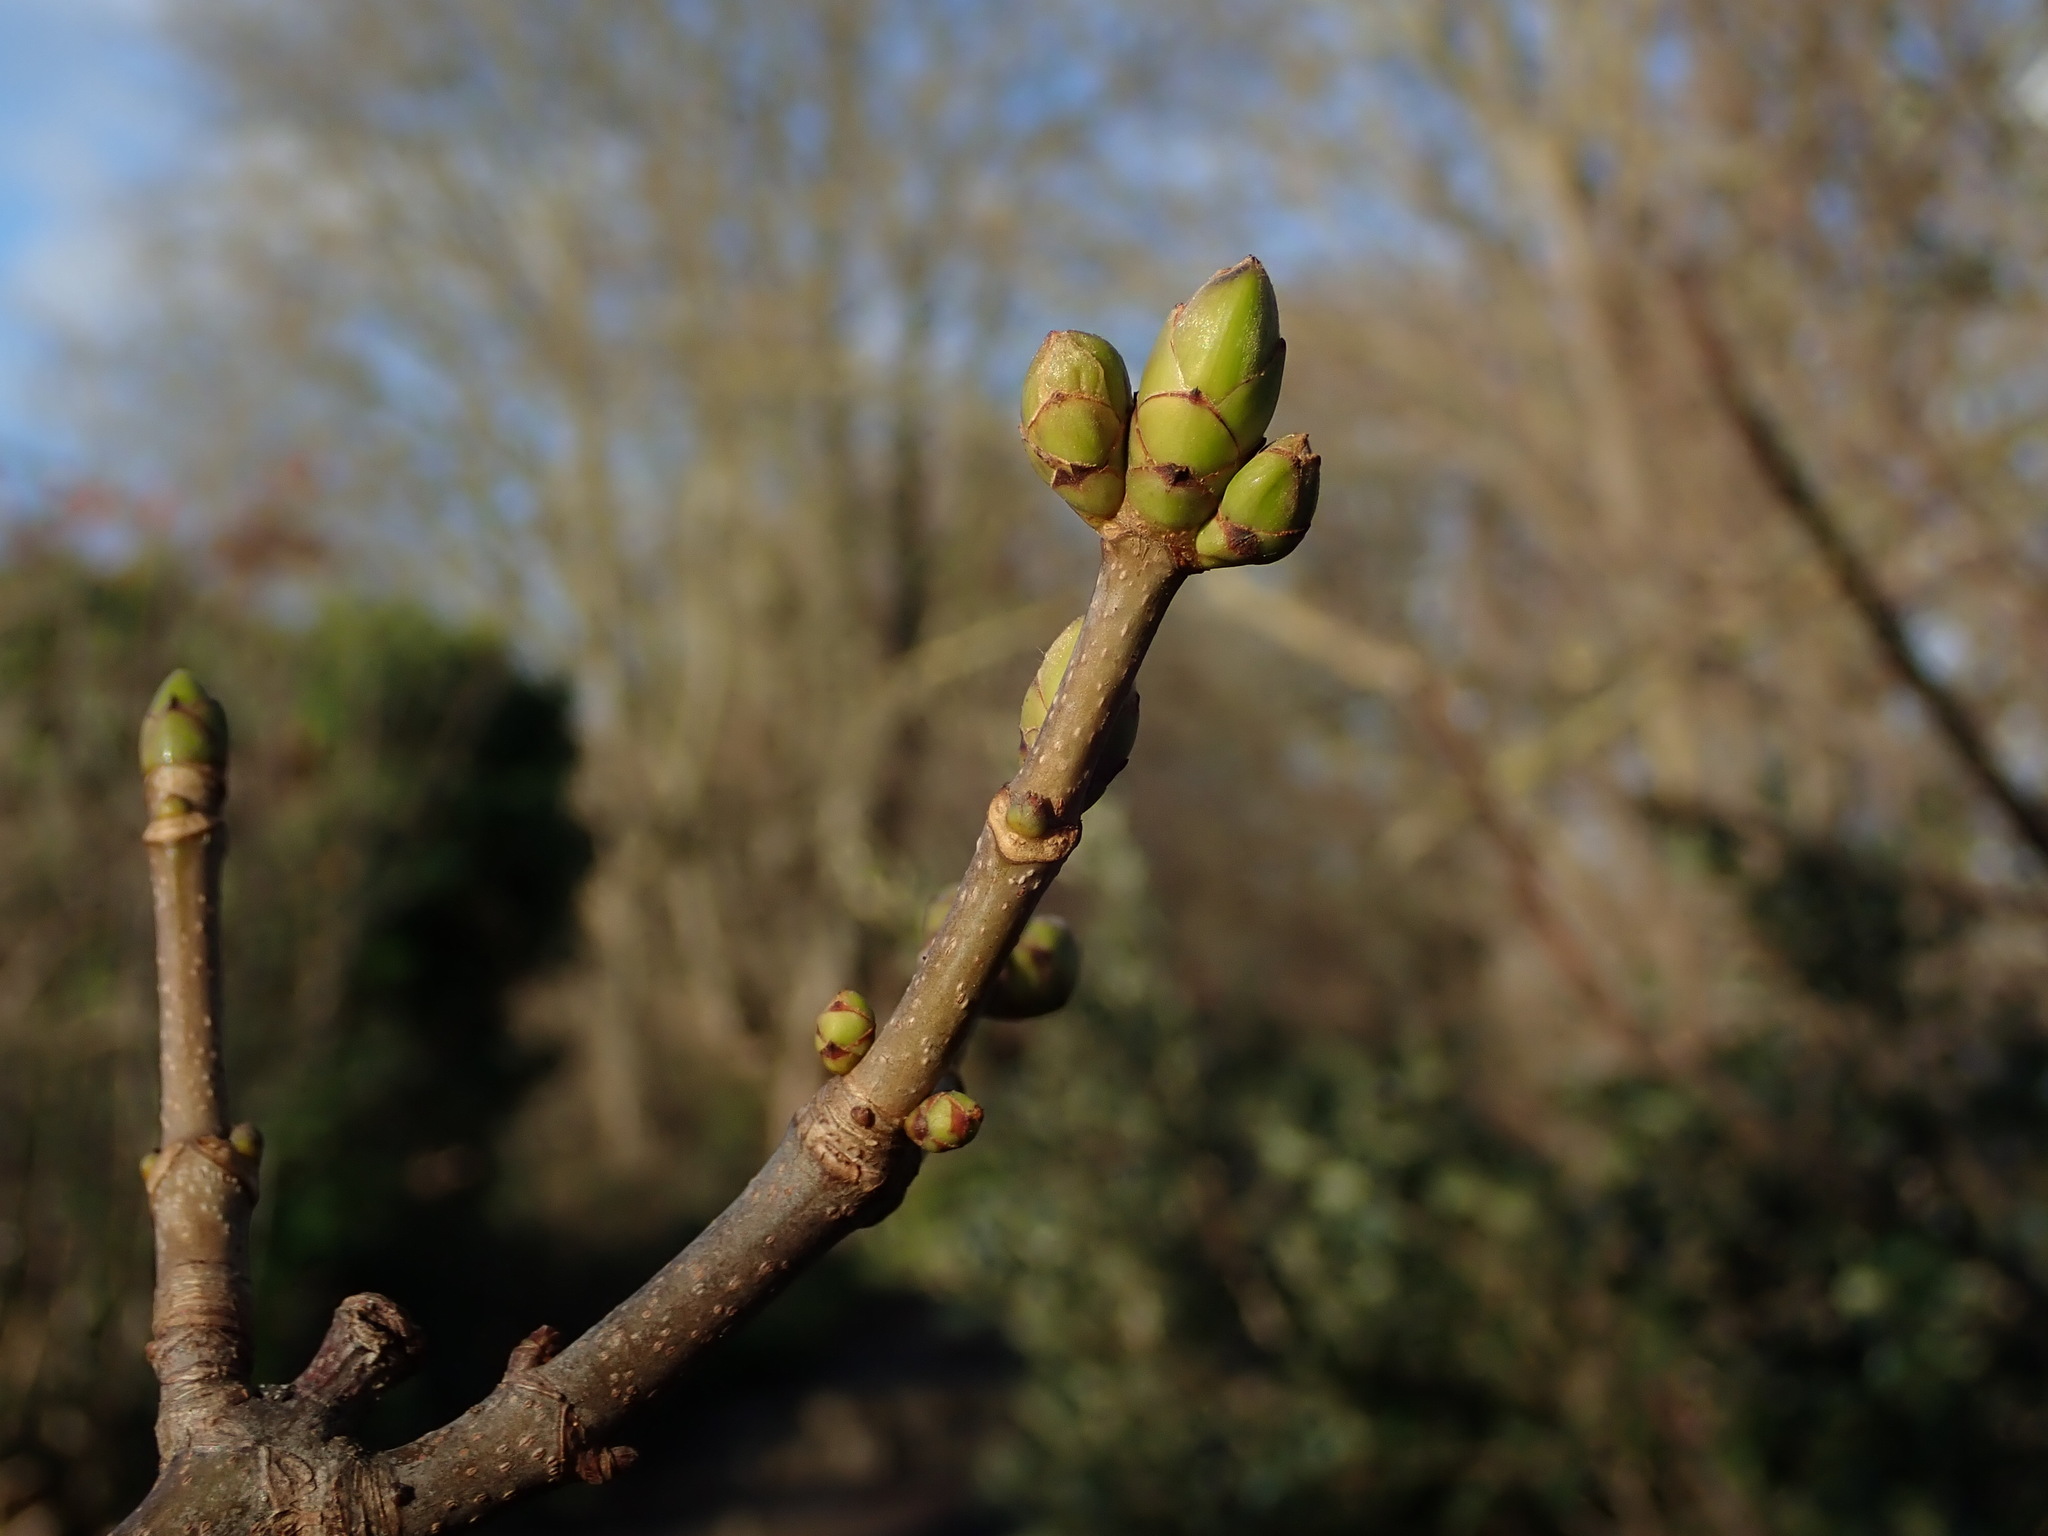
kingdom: Plantae
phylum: Tracheophyta
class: Magnoliopsida
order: Sapindales
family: Sapindaceae
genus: Acer
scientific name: Acer pseudoplatanus
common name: Sycamore
